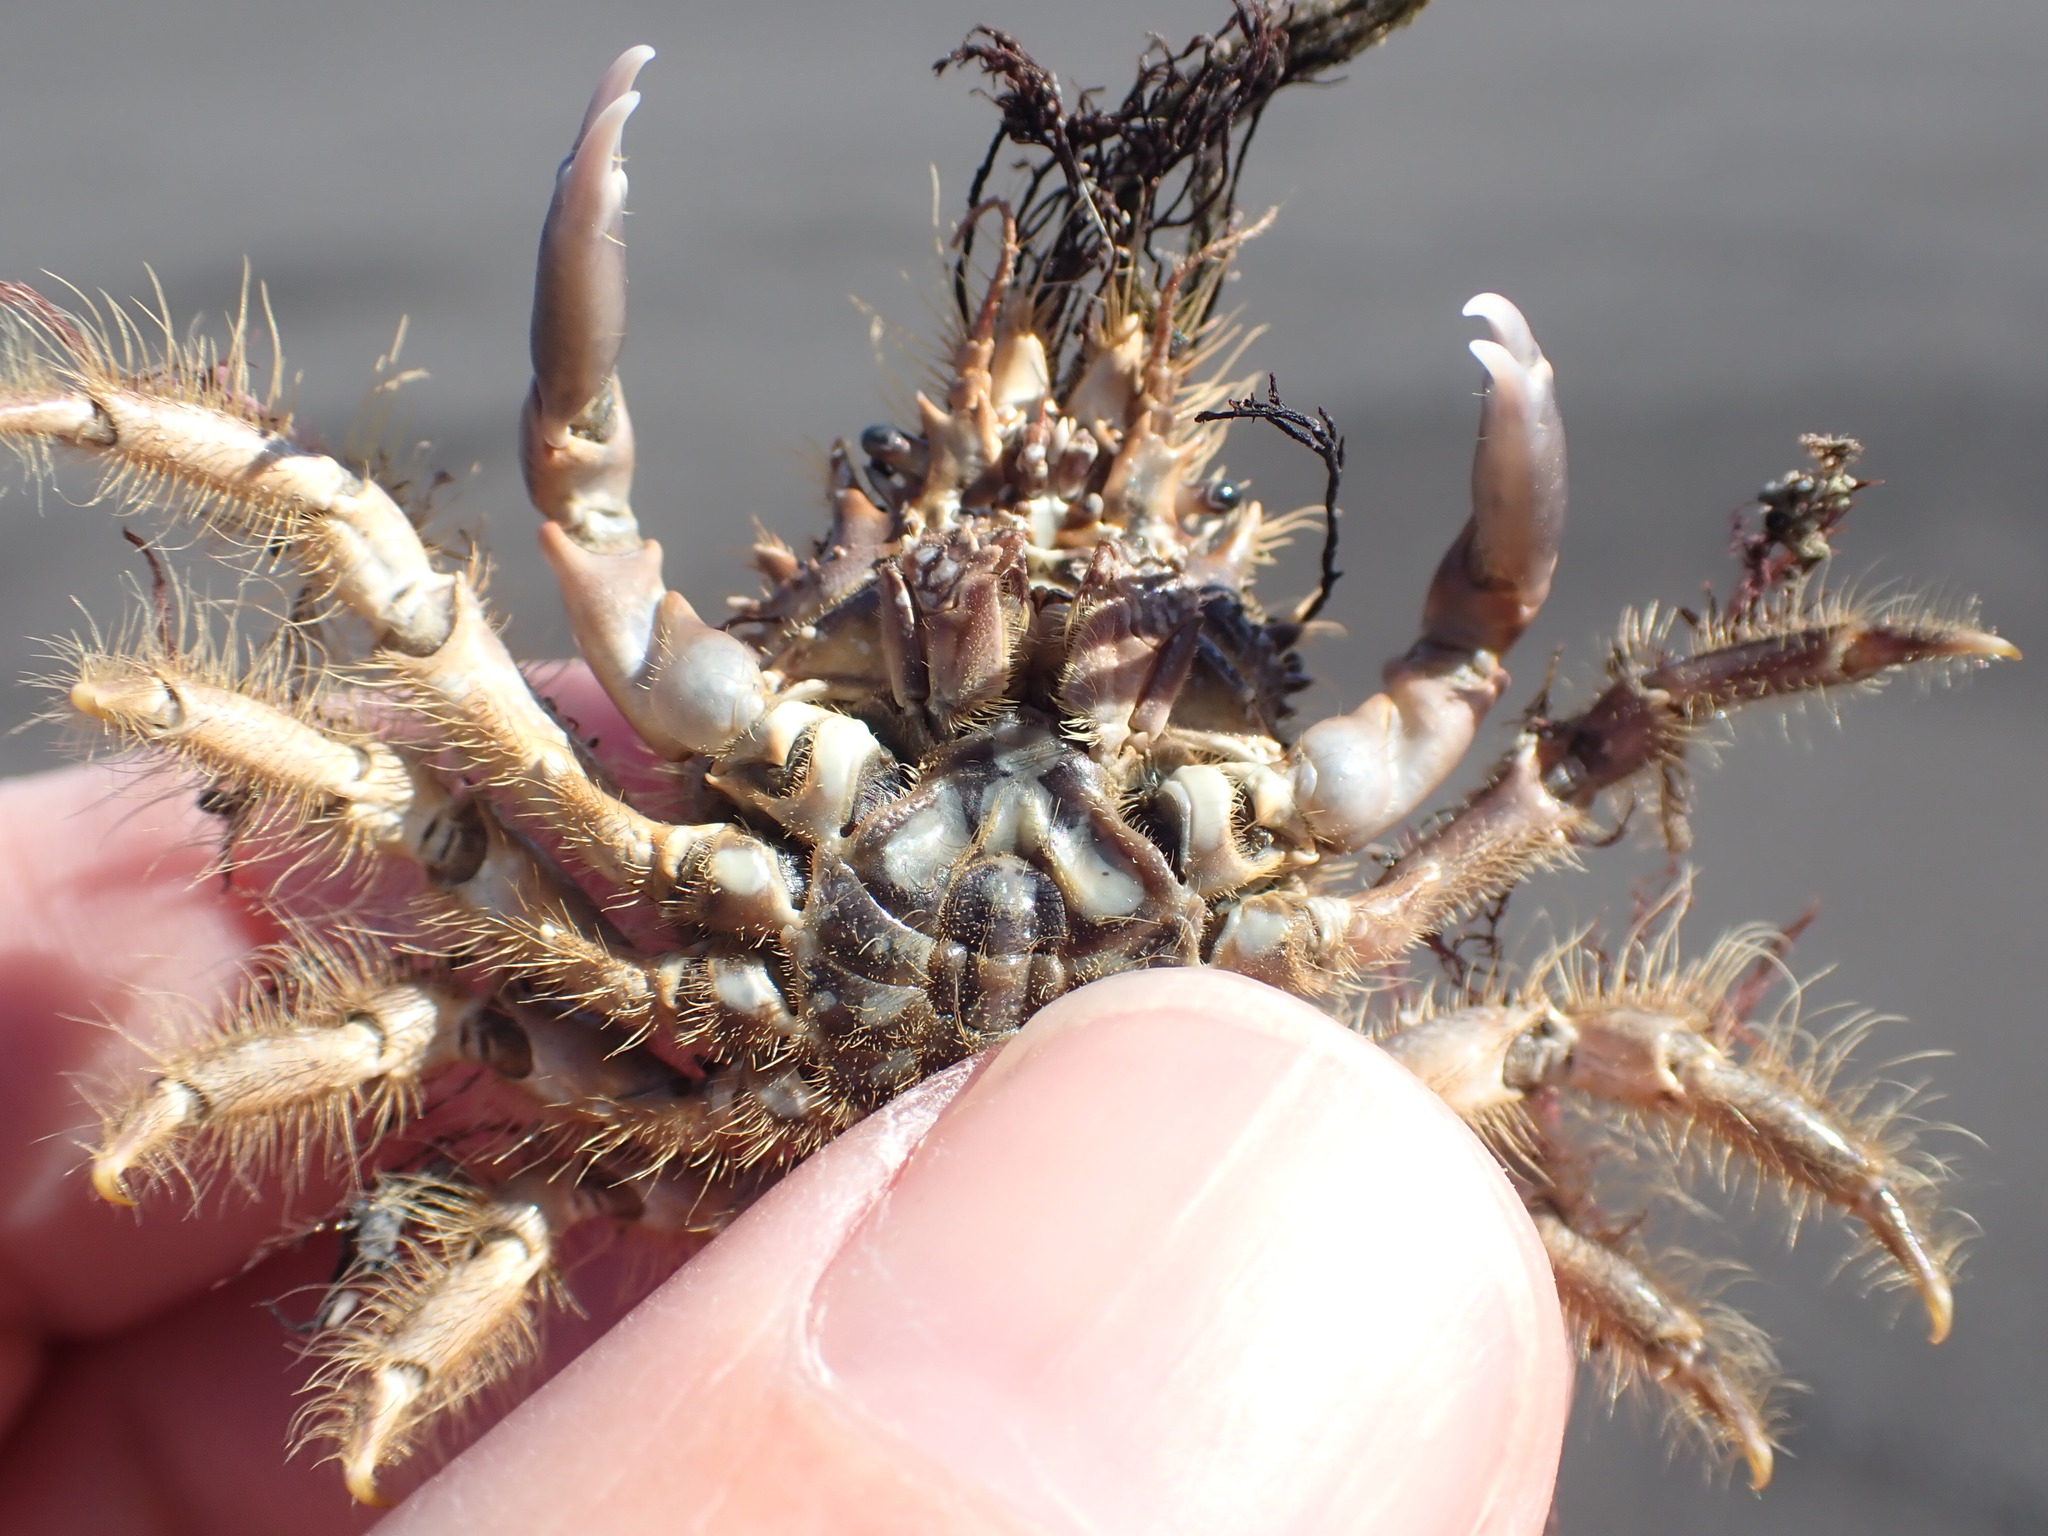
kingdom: Animalia
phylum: Arthropoda
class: Malacostraca
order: Decapoda
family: Majidae
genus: Notomithrax
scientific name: Notomithrax ursus
